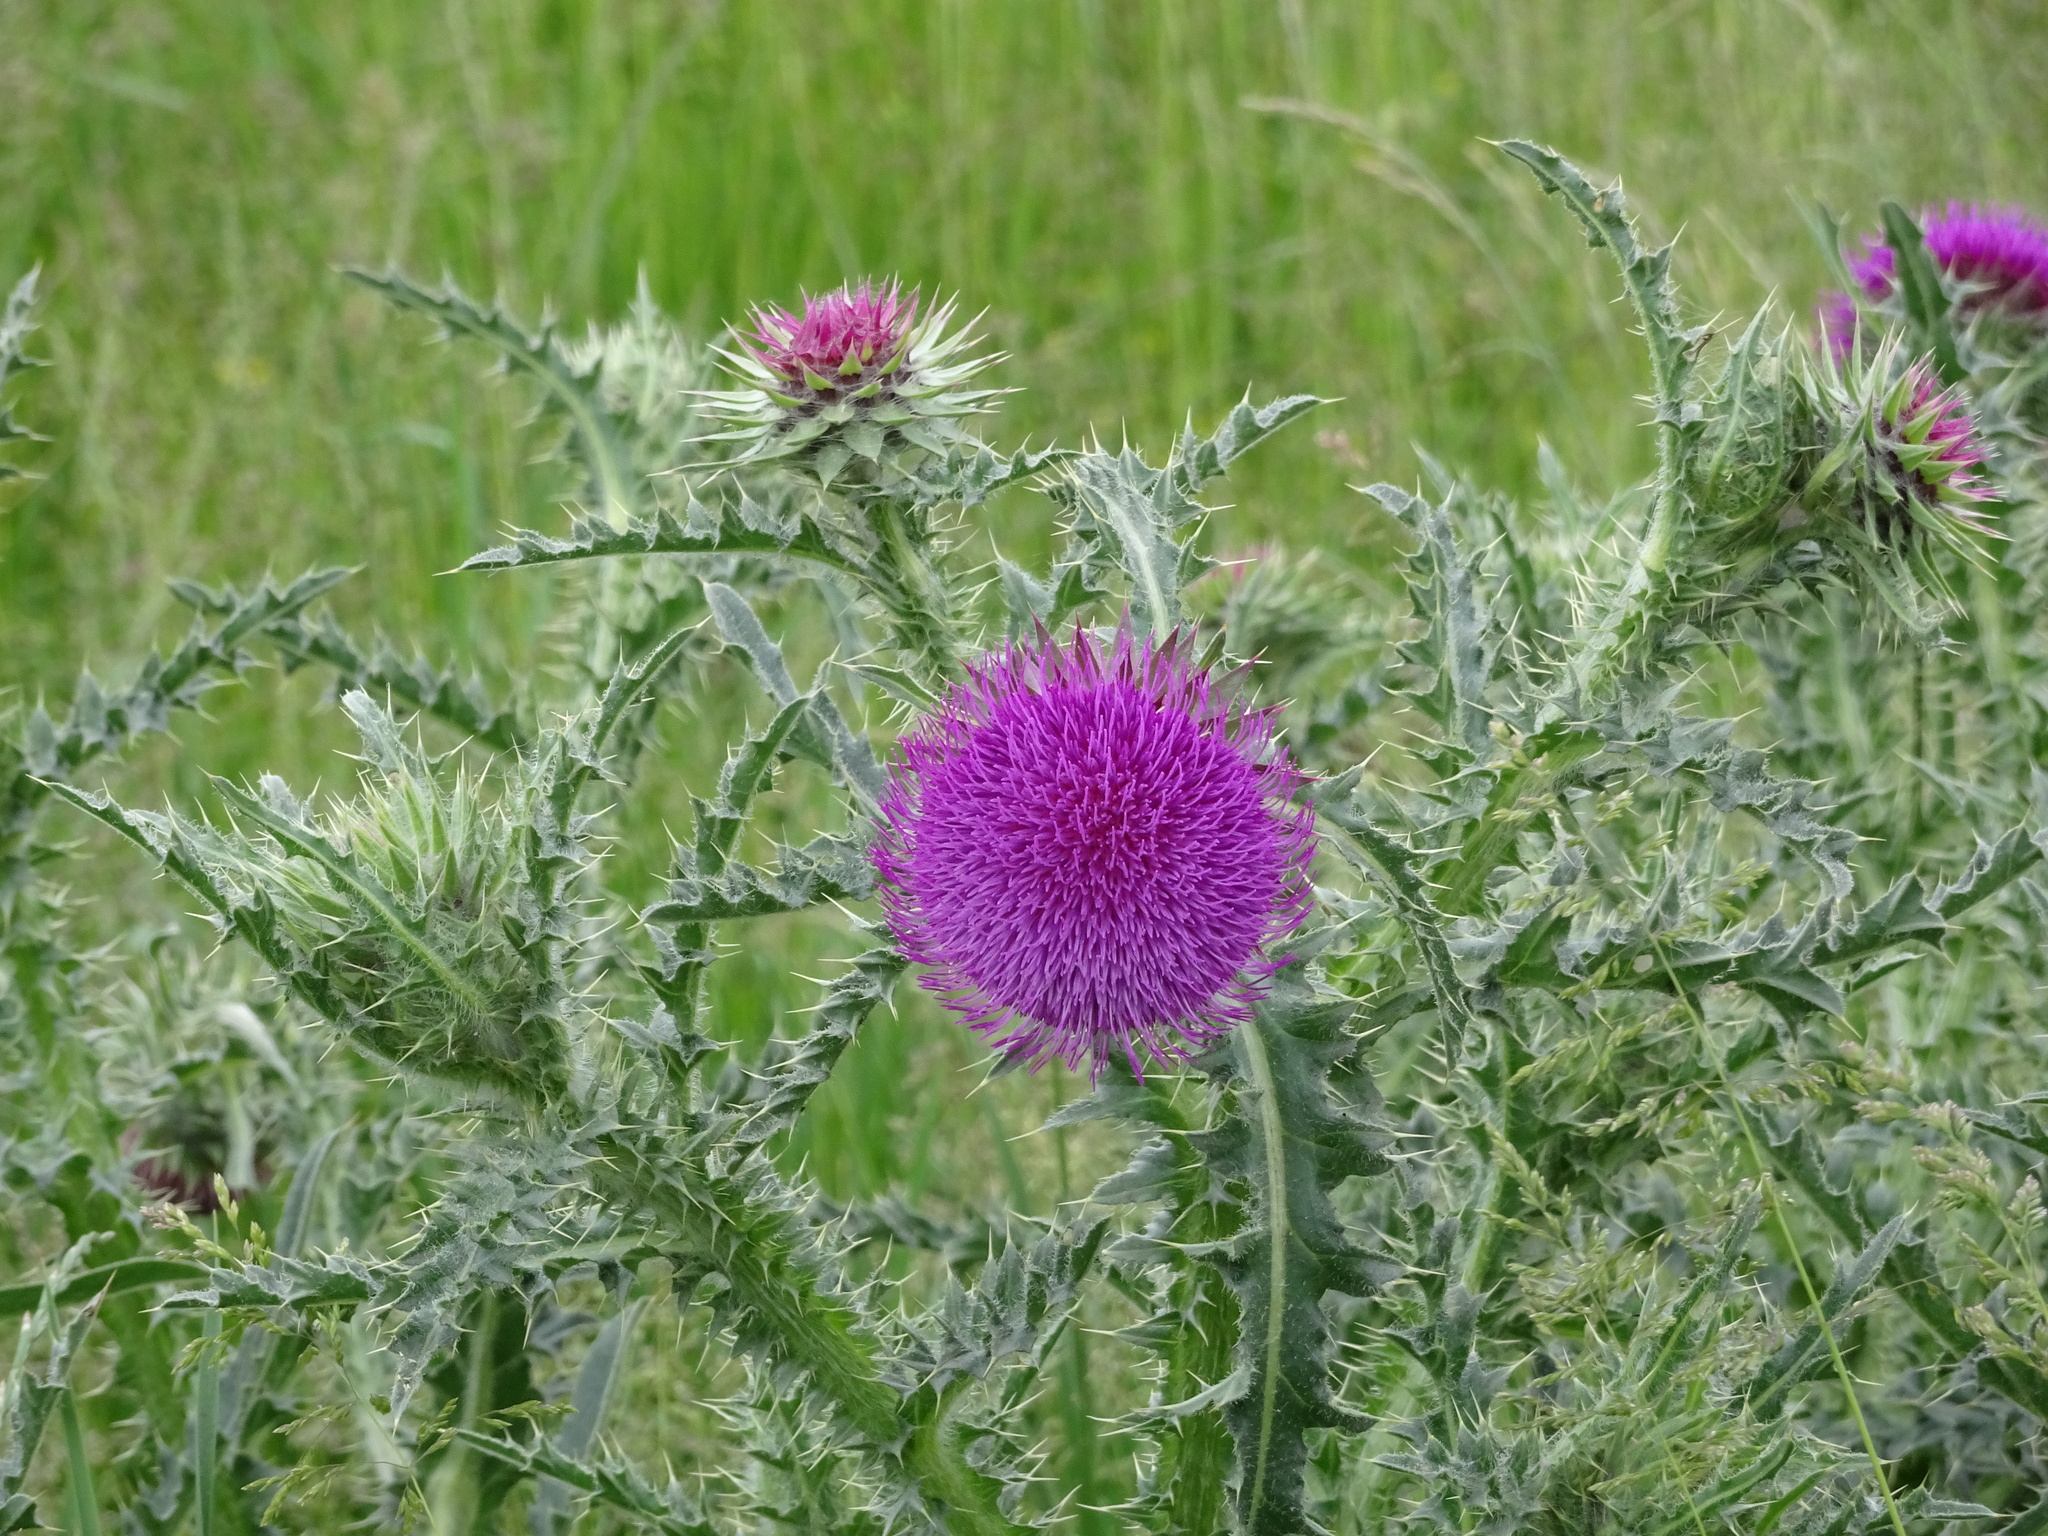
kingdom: Plantae
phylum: Tracheophyta
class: Magnoliopsida
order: Asterales
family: Asteraceae
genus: Carduus
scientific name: Carduus nutans
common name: Musk thistle
